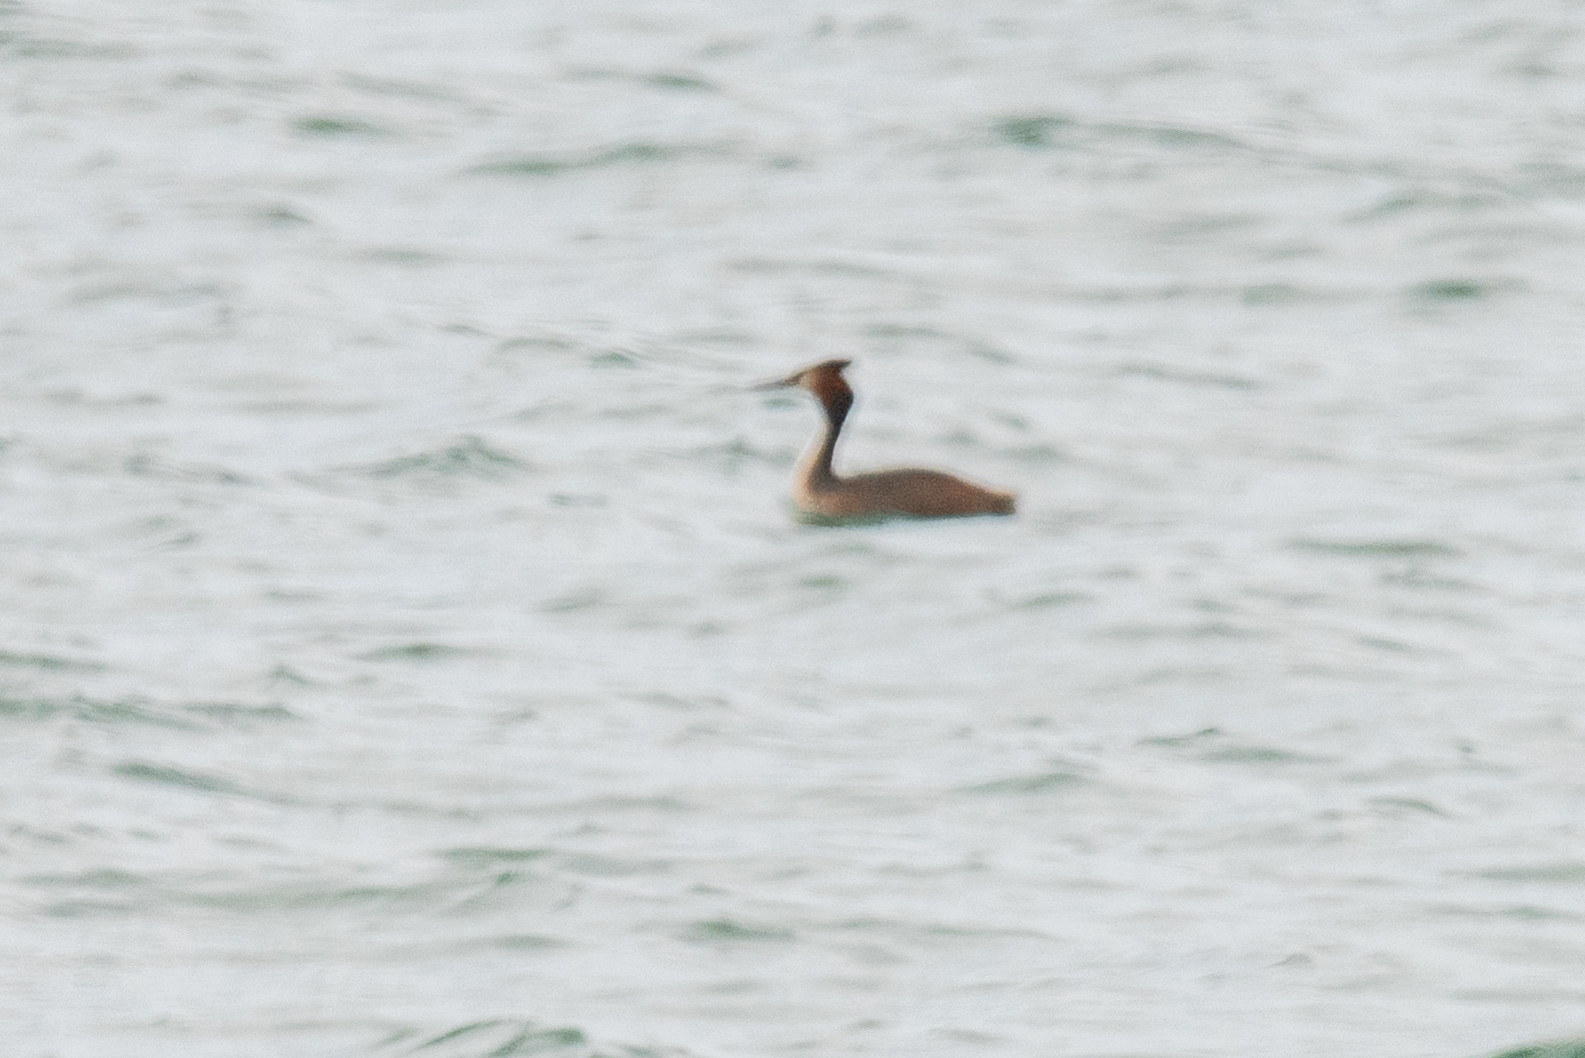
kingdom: Animalia
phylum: Chordata
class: Aves
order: Podicipediformes
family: Podicipedidae
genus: Podiceps
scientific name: Podiceps cristatus
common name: Great crested grebe
